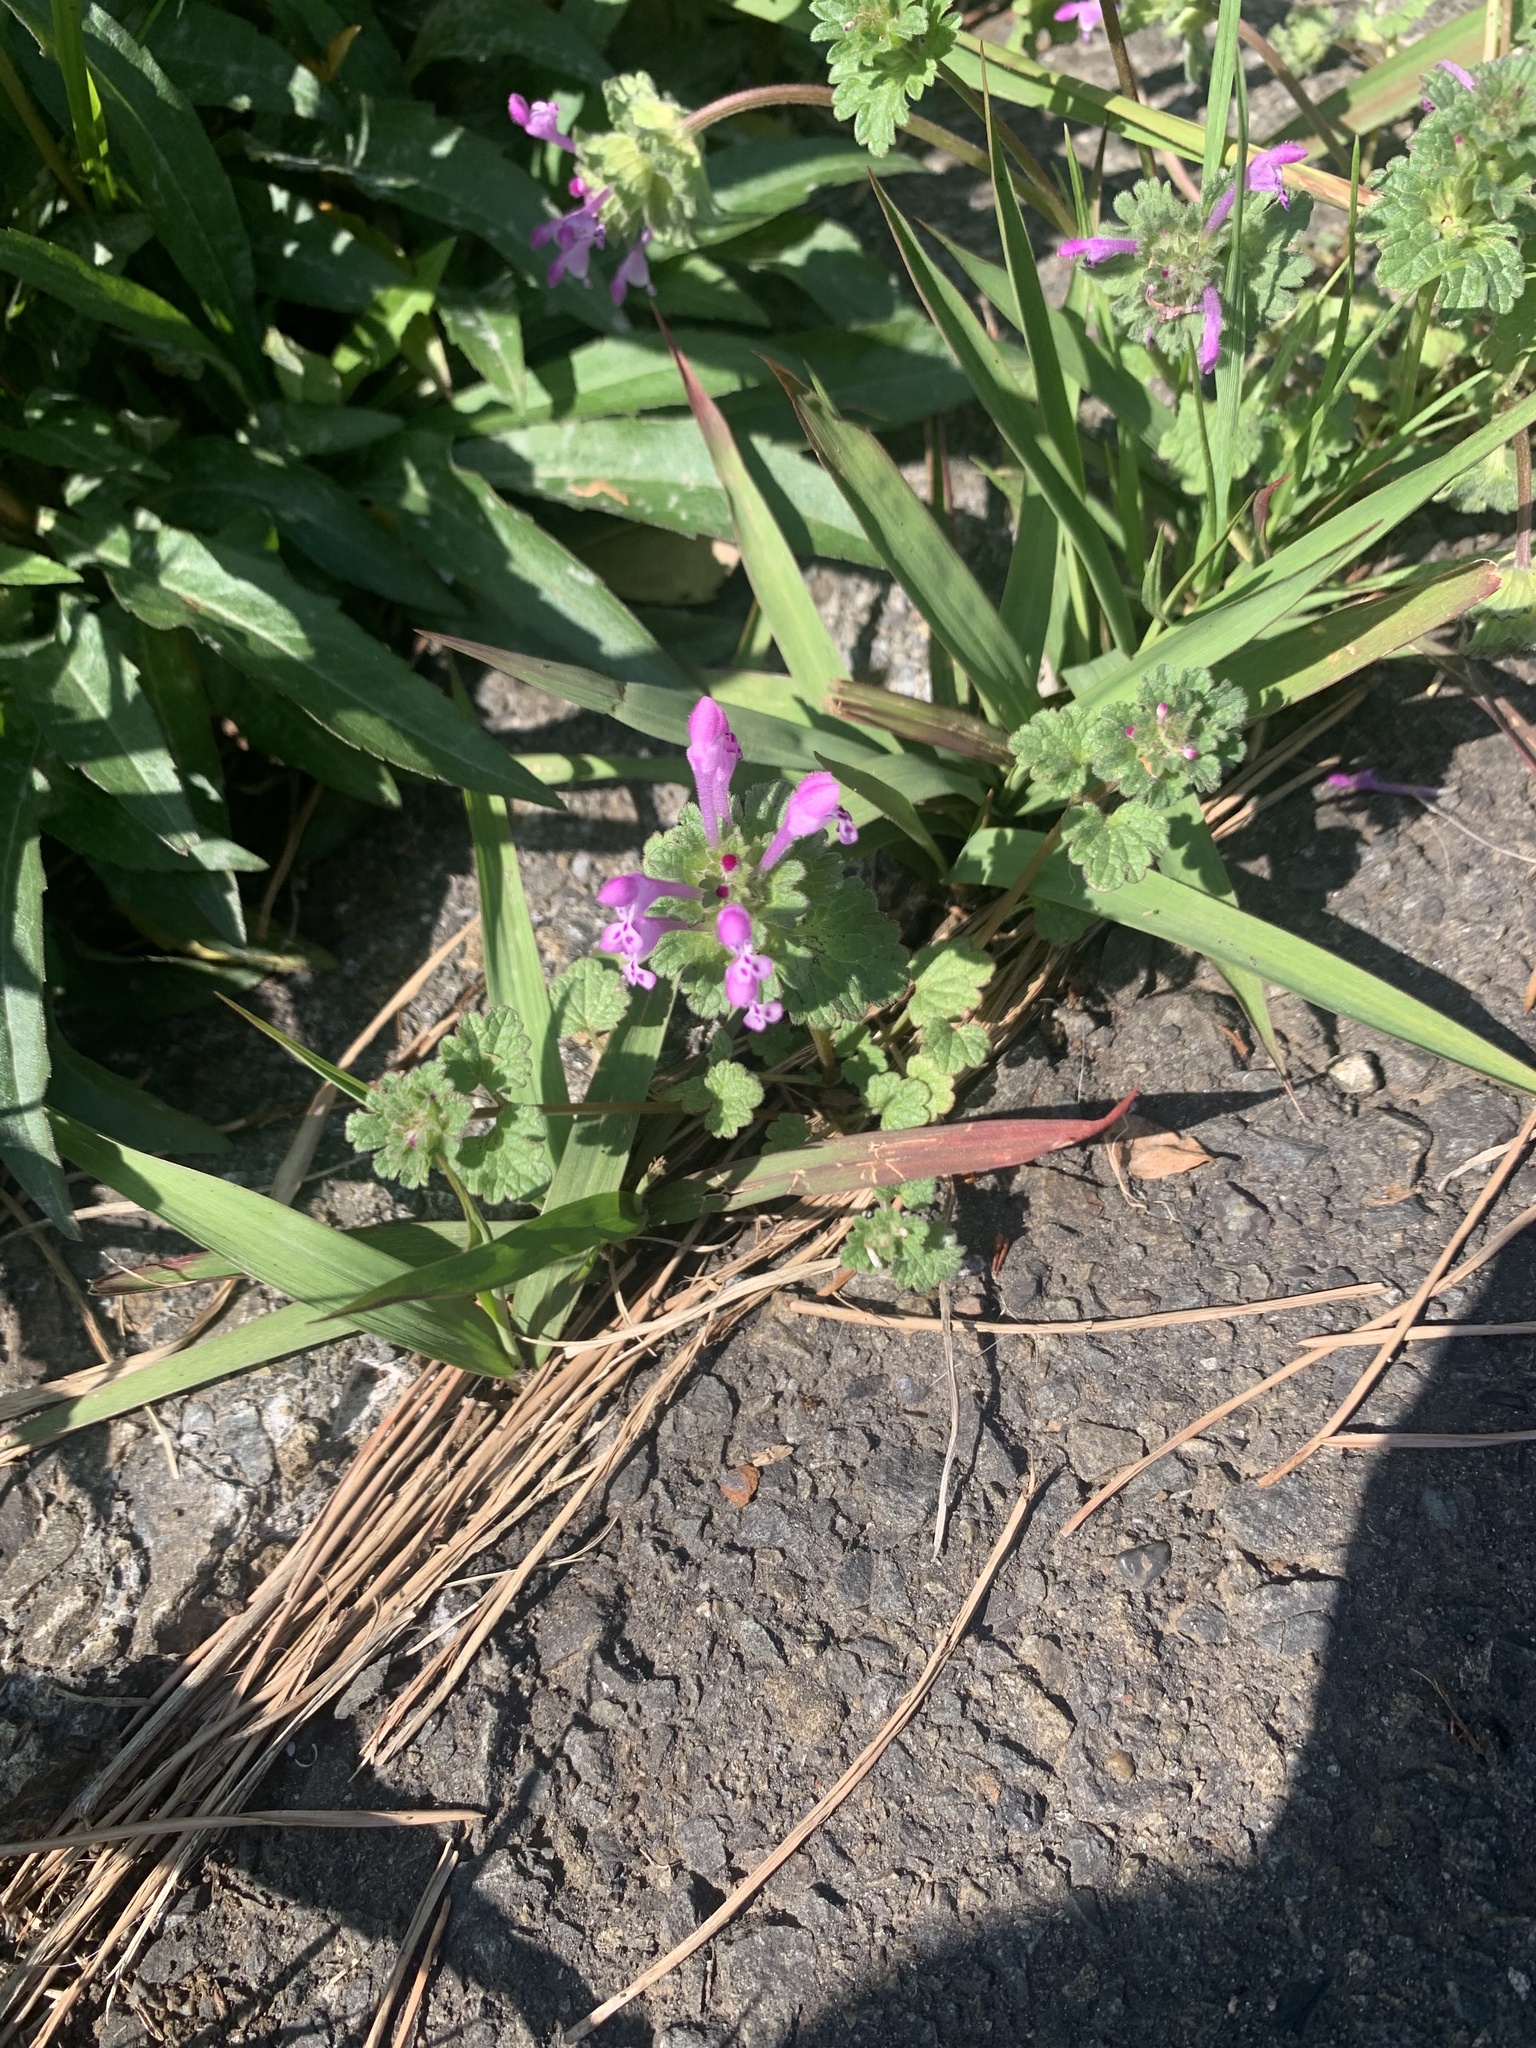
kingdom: Plantae
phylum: Tracheophyta
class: Magnoliopsida
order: Lamiales
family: Lamiaceae
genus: Lamium
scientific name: Lamium amplexicaule
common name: Henbit dead-nettle
